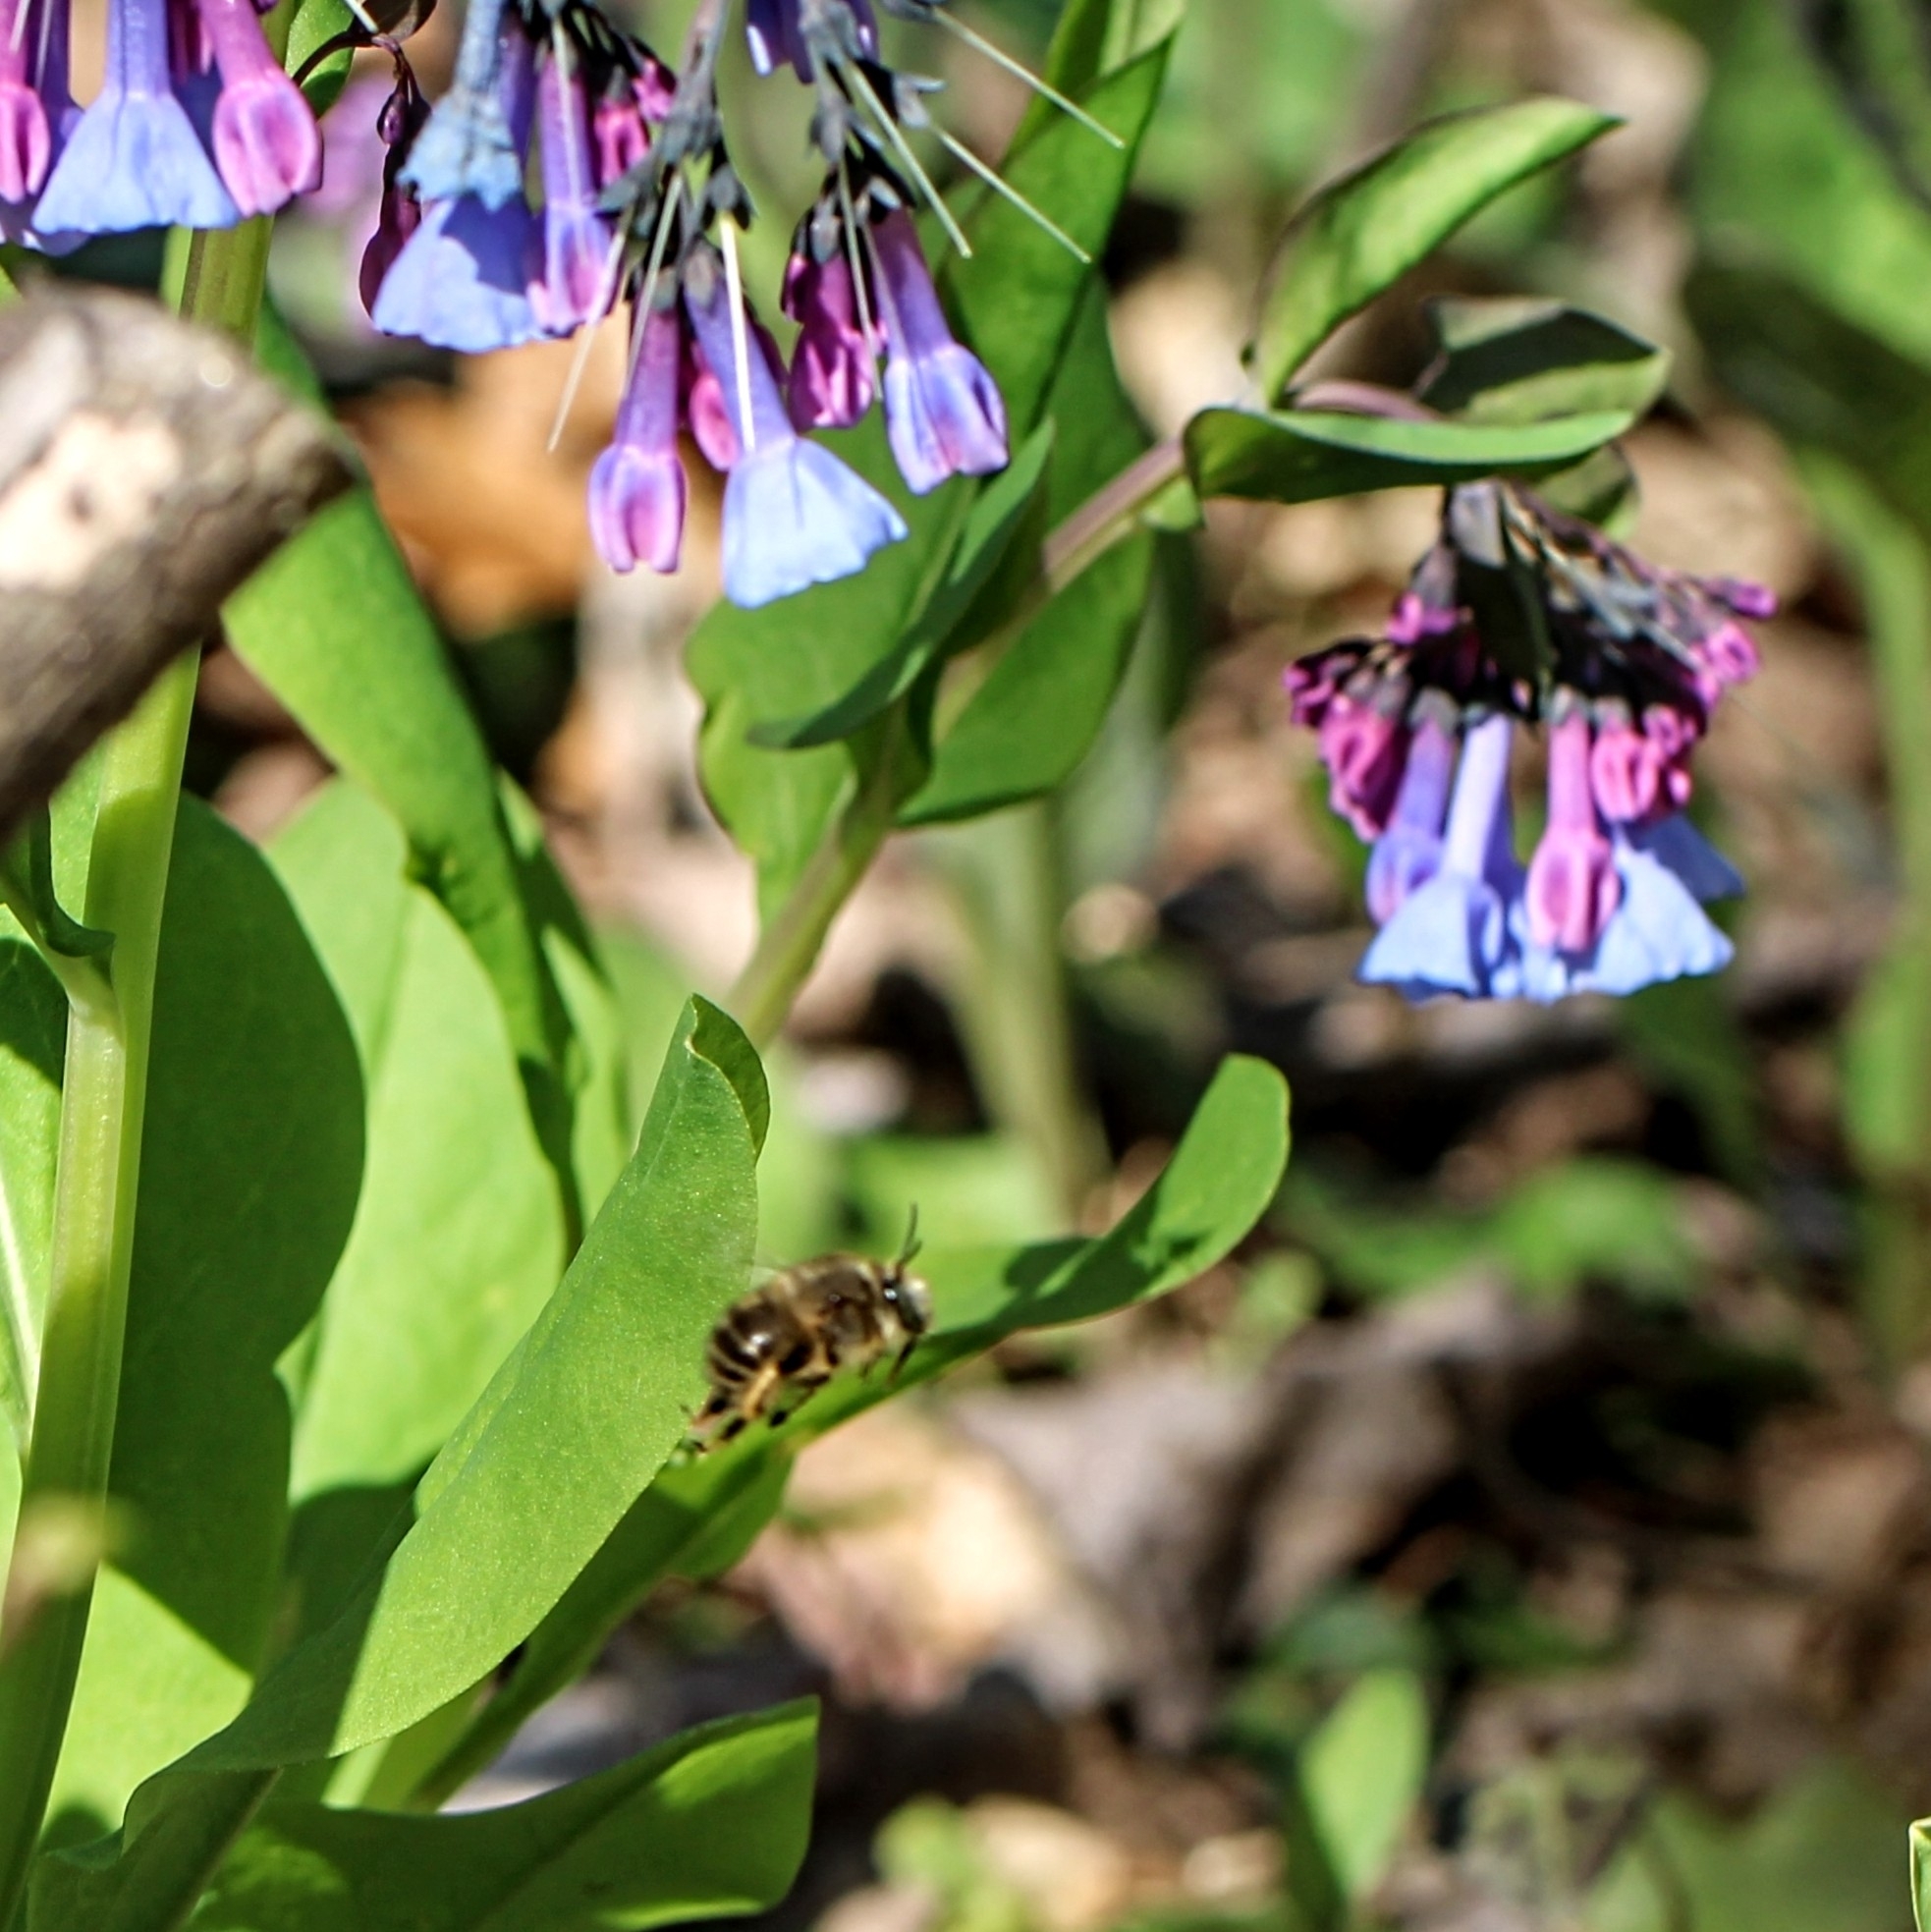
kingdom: Animalia
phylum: Arthropoda
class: Insecta
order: Hymenoptera
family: Apidae
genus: Anthophora
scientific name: Anthophora villosula
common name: Asian shaggy digger
